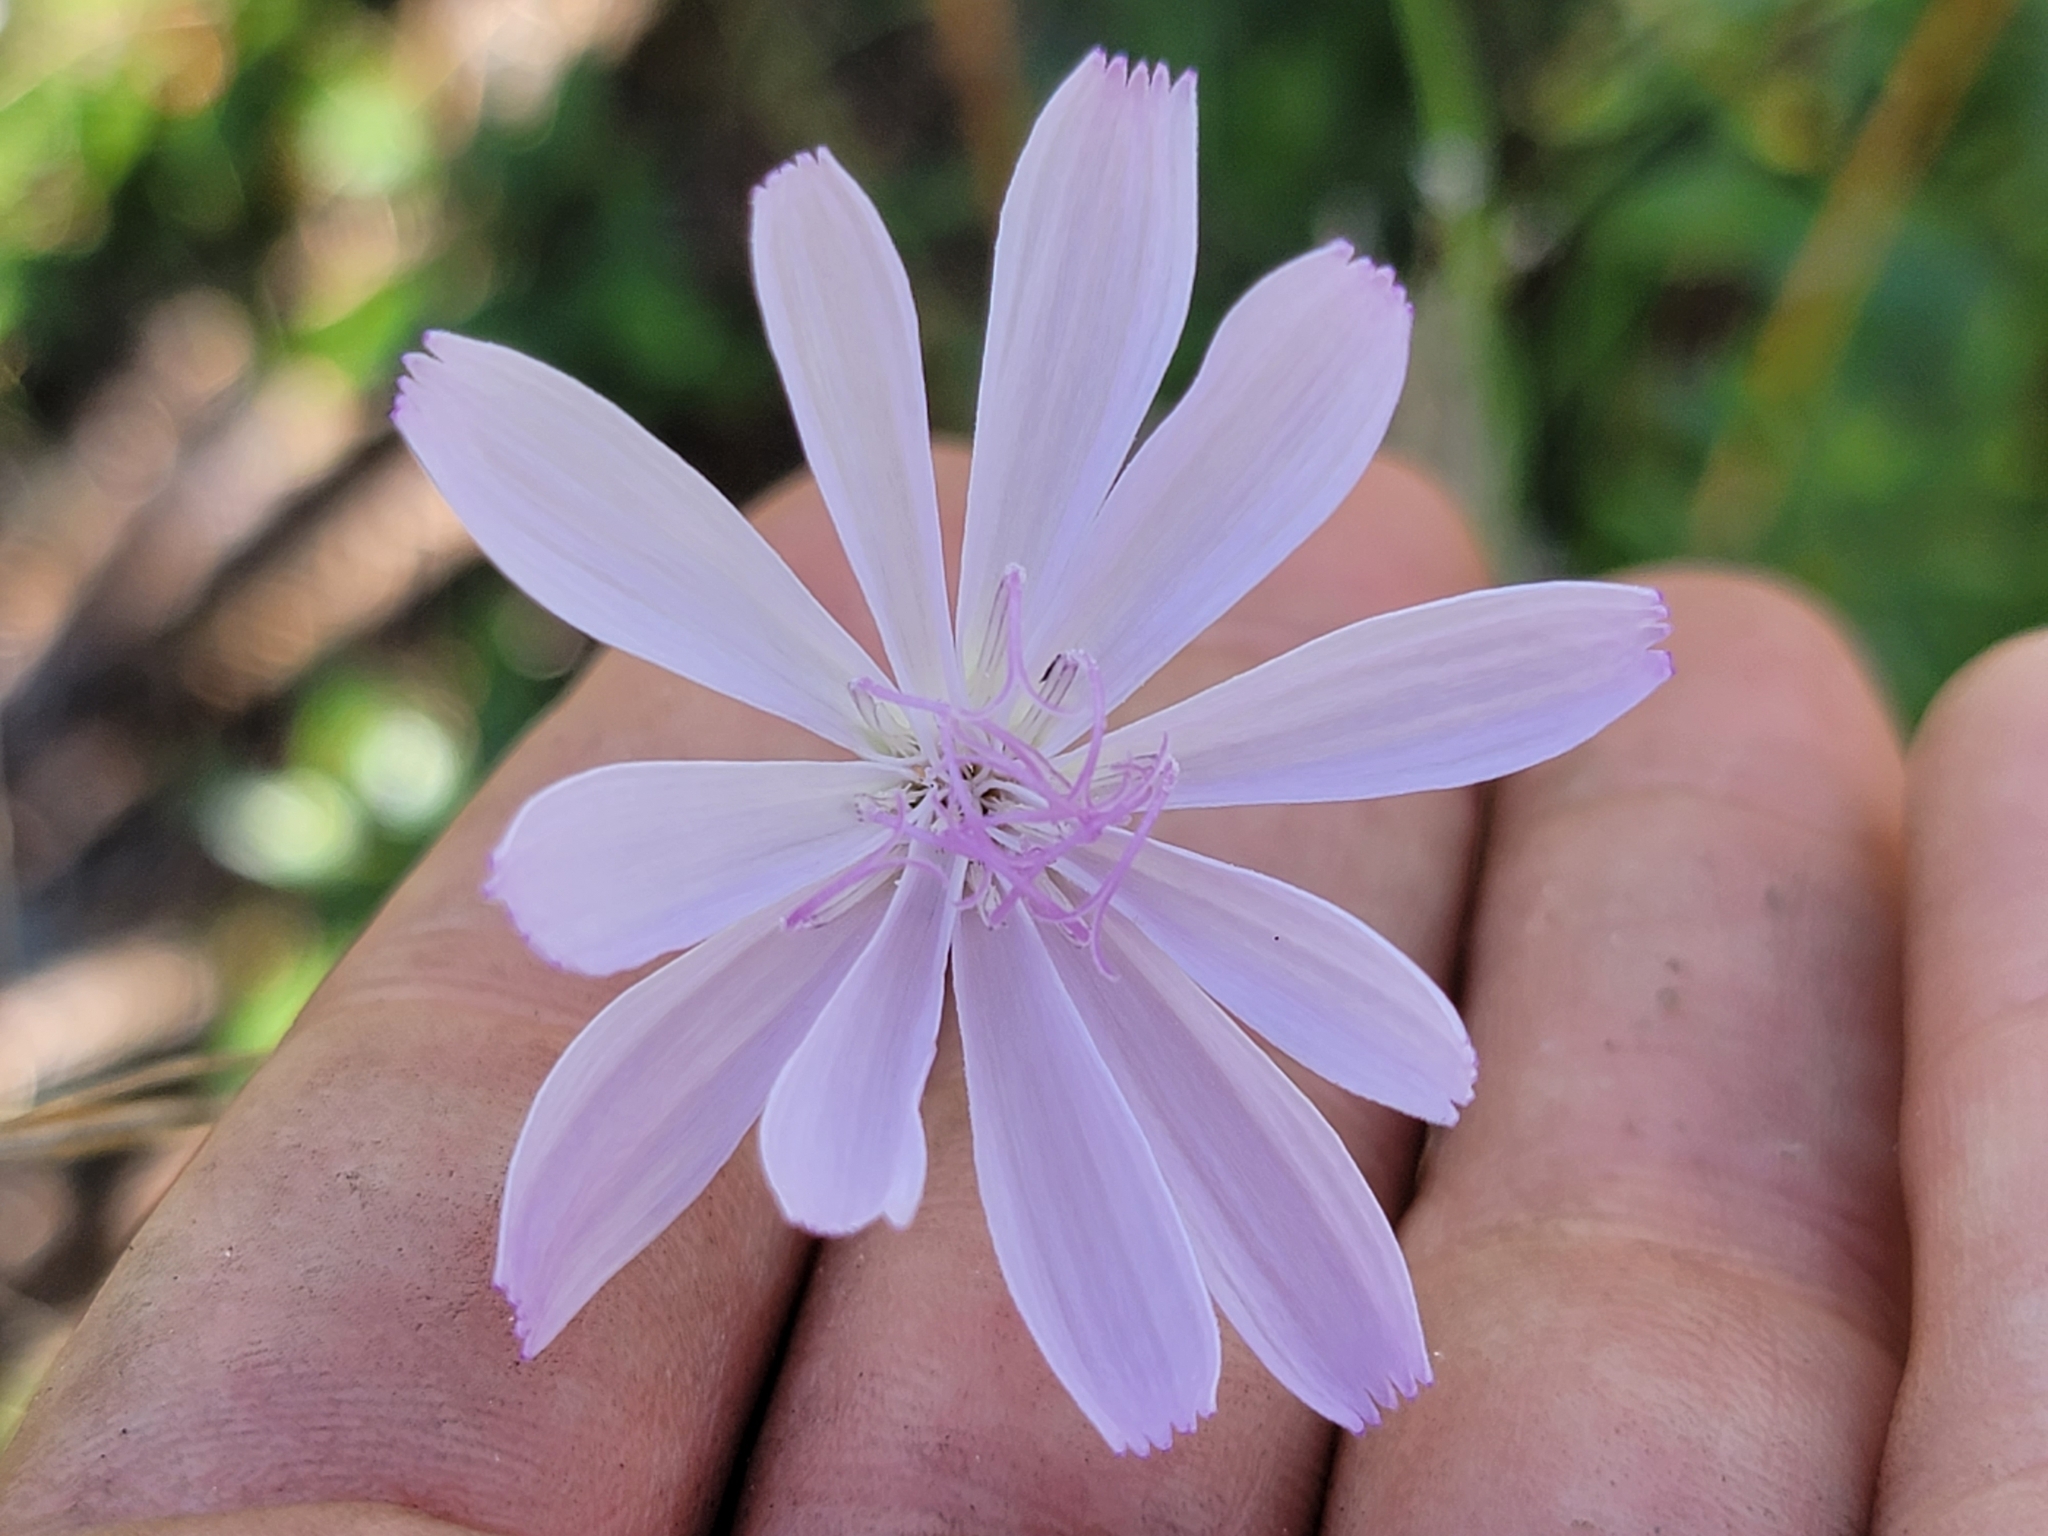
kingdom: Plantae
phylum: Tracheophyta
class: Magnoliopsida
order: Asterales
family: Asteraceae
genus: Lygodesmia
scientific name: Lygodesmia aphylla
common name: Rose-rush
